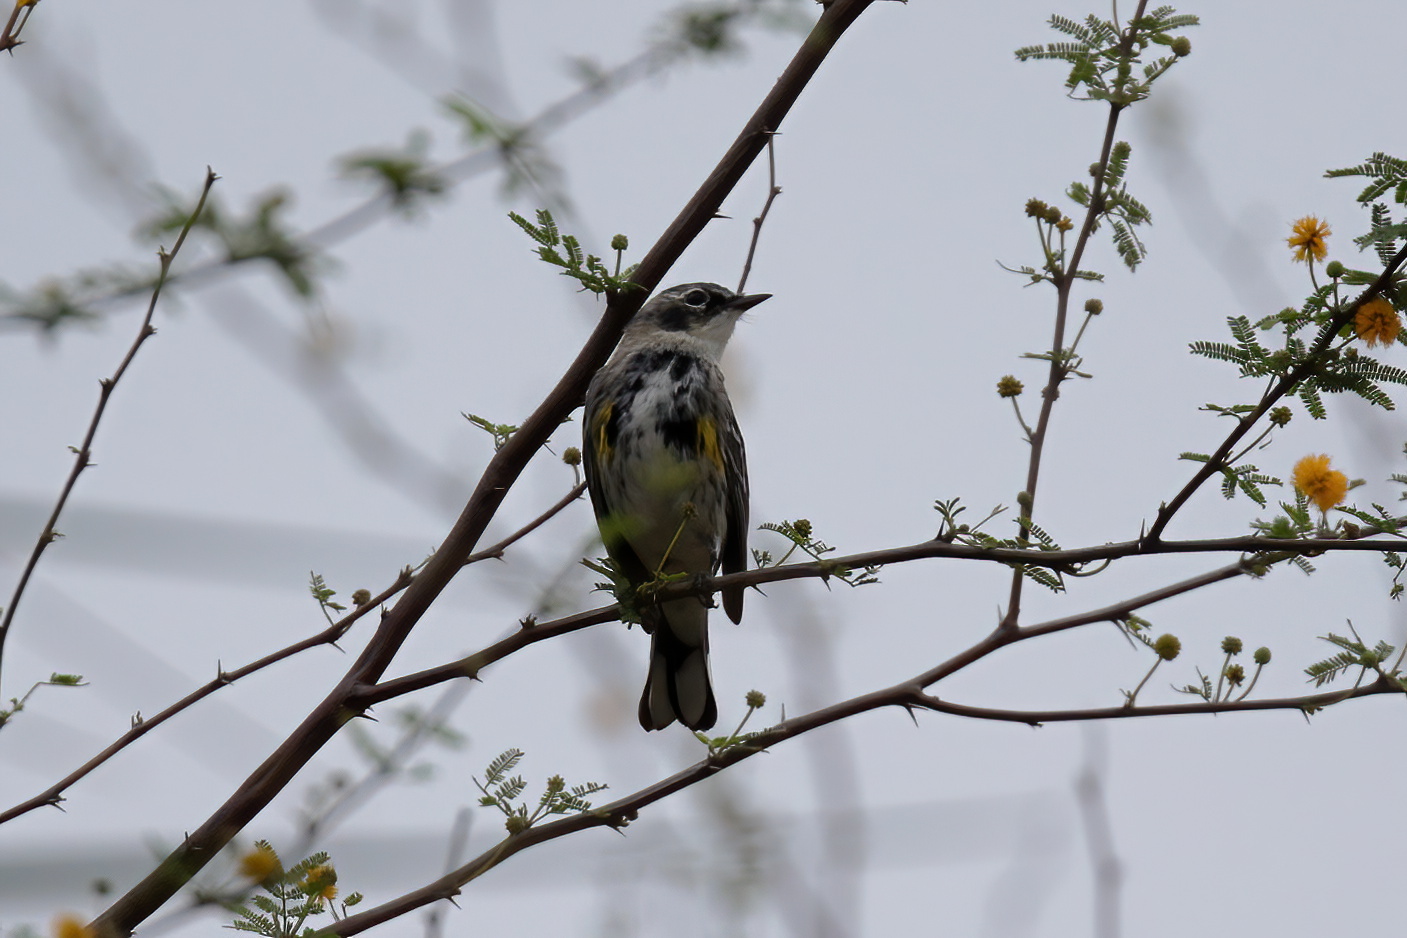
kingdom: Animalia
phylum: Chordata
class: Aves
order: Passeriformes
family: Parulidae
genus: Setophaga
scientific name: Setophaga coronata
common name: Myrtle warbler
